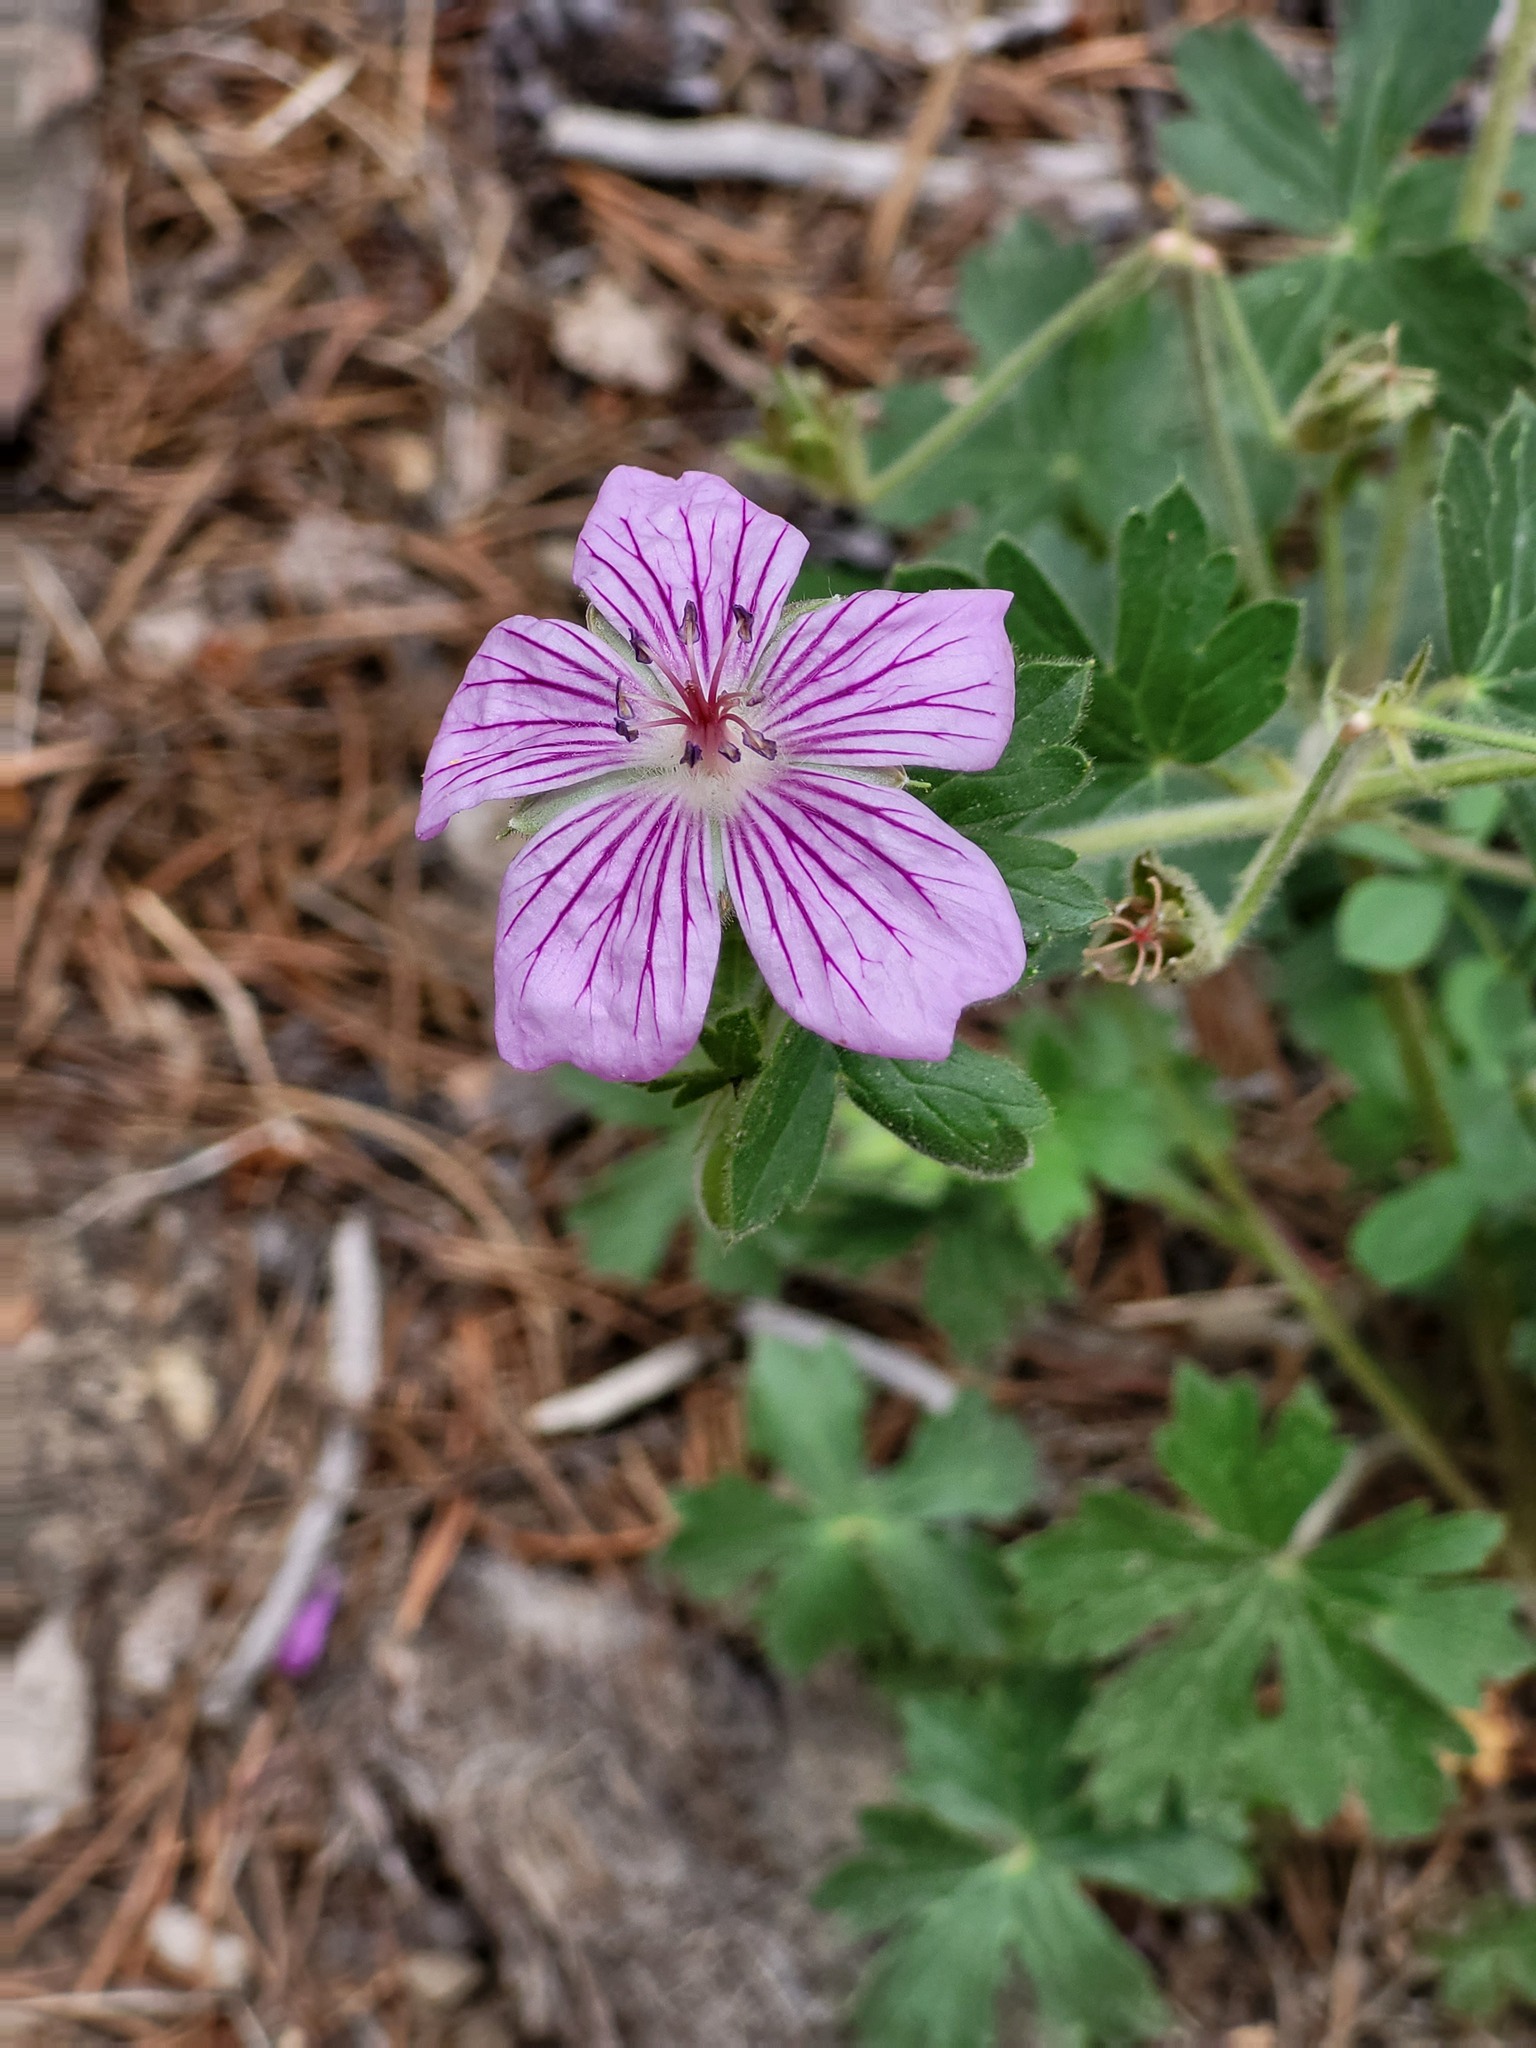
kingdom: Plantae
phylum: Tracheophyta
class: Magnoliopsida
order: Geraniales
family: Geraniaceae
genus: Geranium
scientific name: Geranium caespitosum
